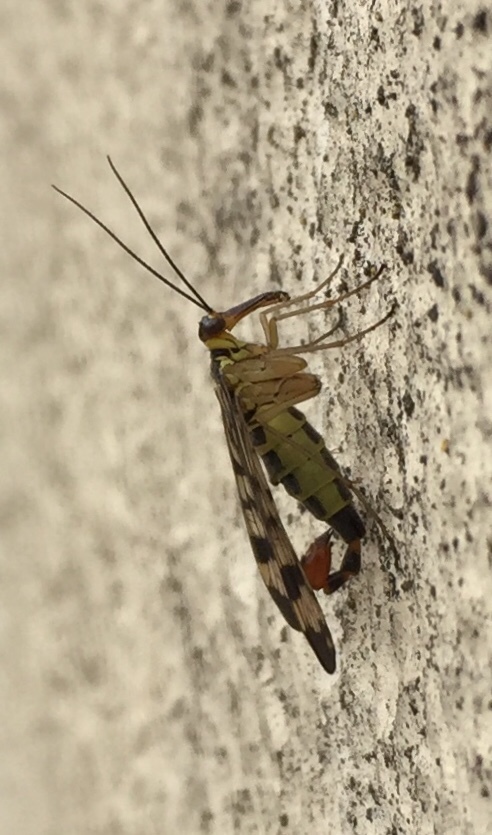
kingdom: Animalia
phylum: Arthropoda
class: Insecta
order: Mecoptera
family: Panorpidae
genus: Panorpa
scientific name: Panorpa communis
